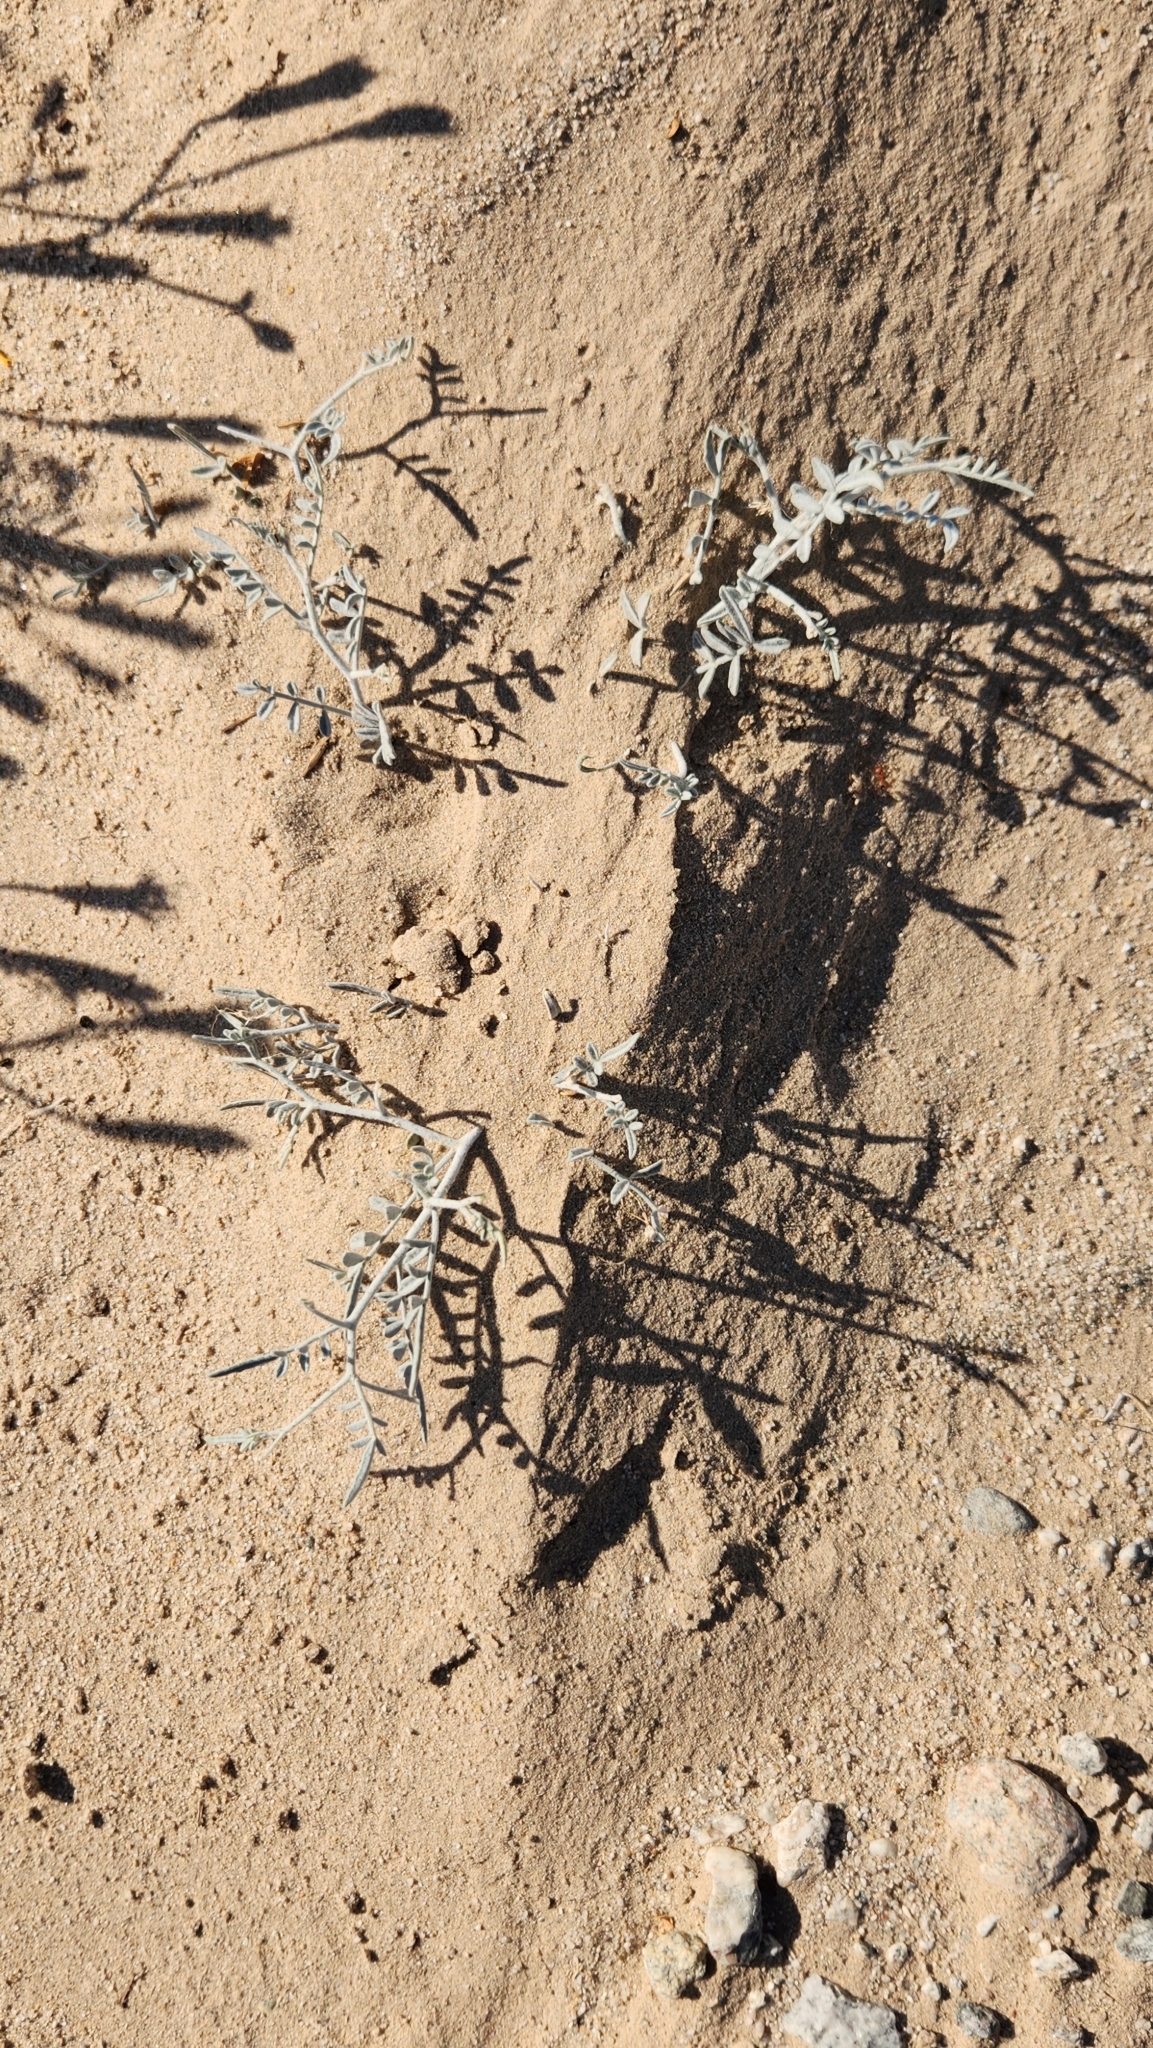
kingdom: Plantae
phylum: Tracheophyta
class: Magnoliopsida
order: Fabales
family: Fabaceae
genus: Psorothamnus
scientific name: Psorothamnus emoryi
